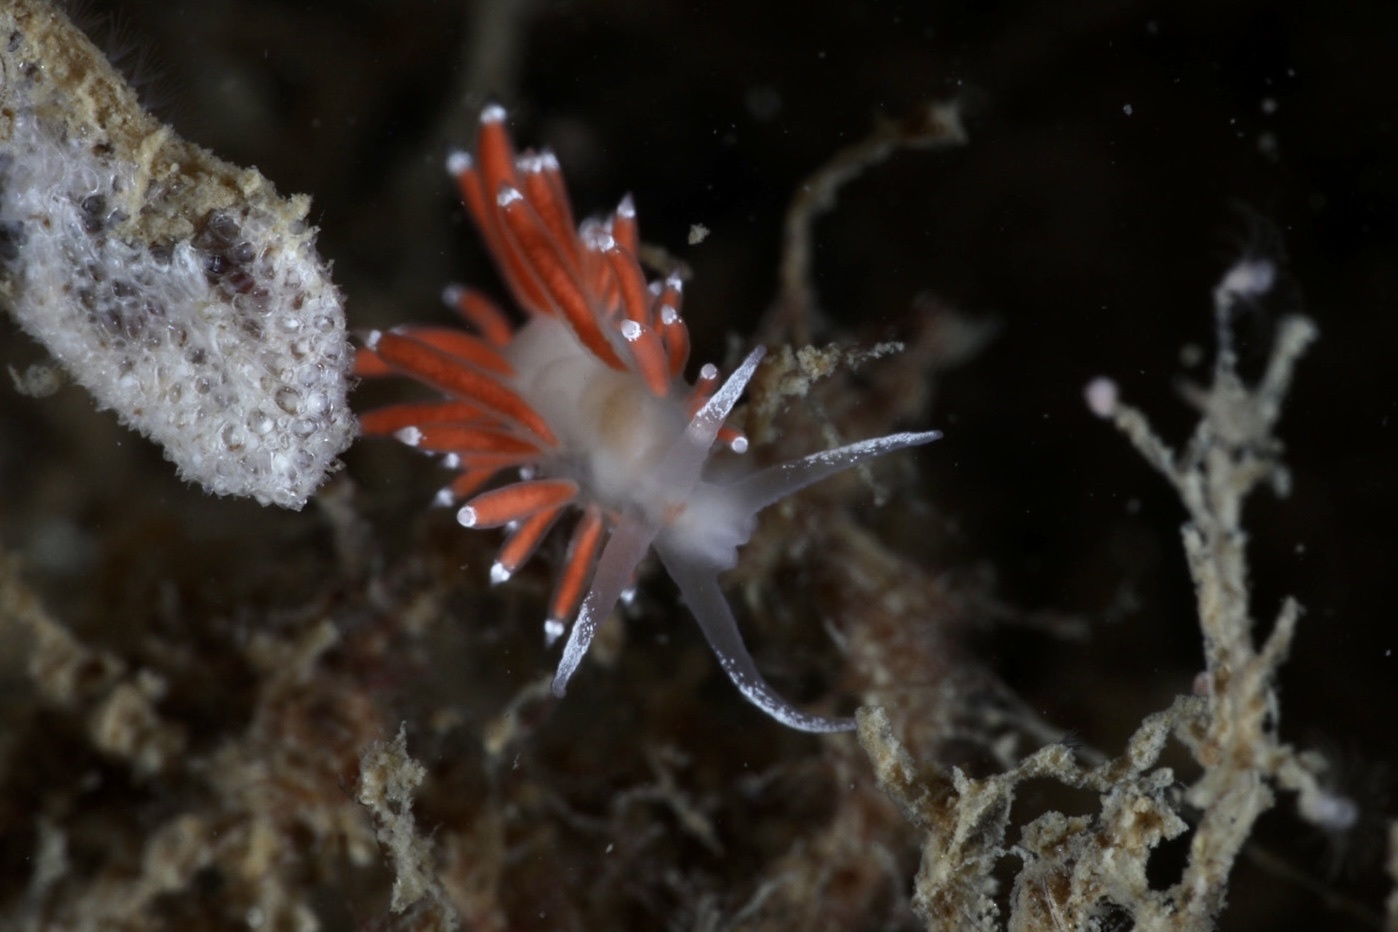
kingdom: Animalia
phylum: Mollusca
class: Gastropoda
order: Nudibranchia
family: Coryphellidae
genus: Coryphella
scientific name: Coryphella gracilis
